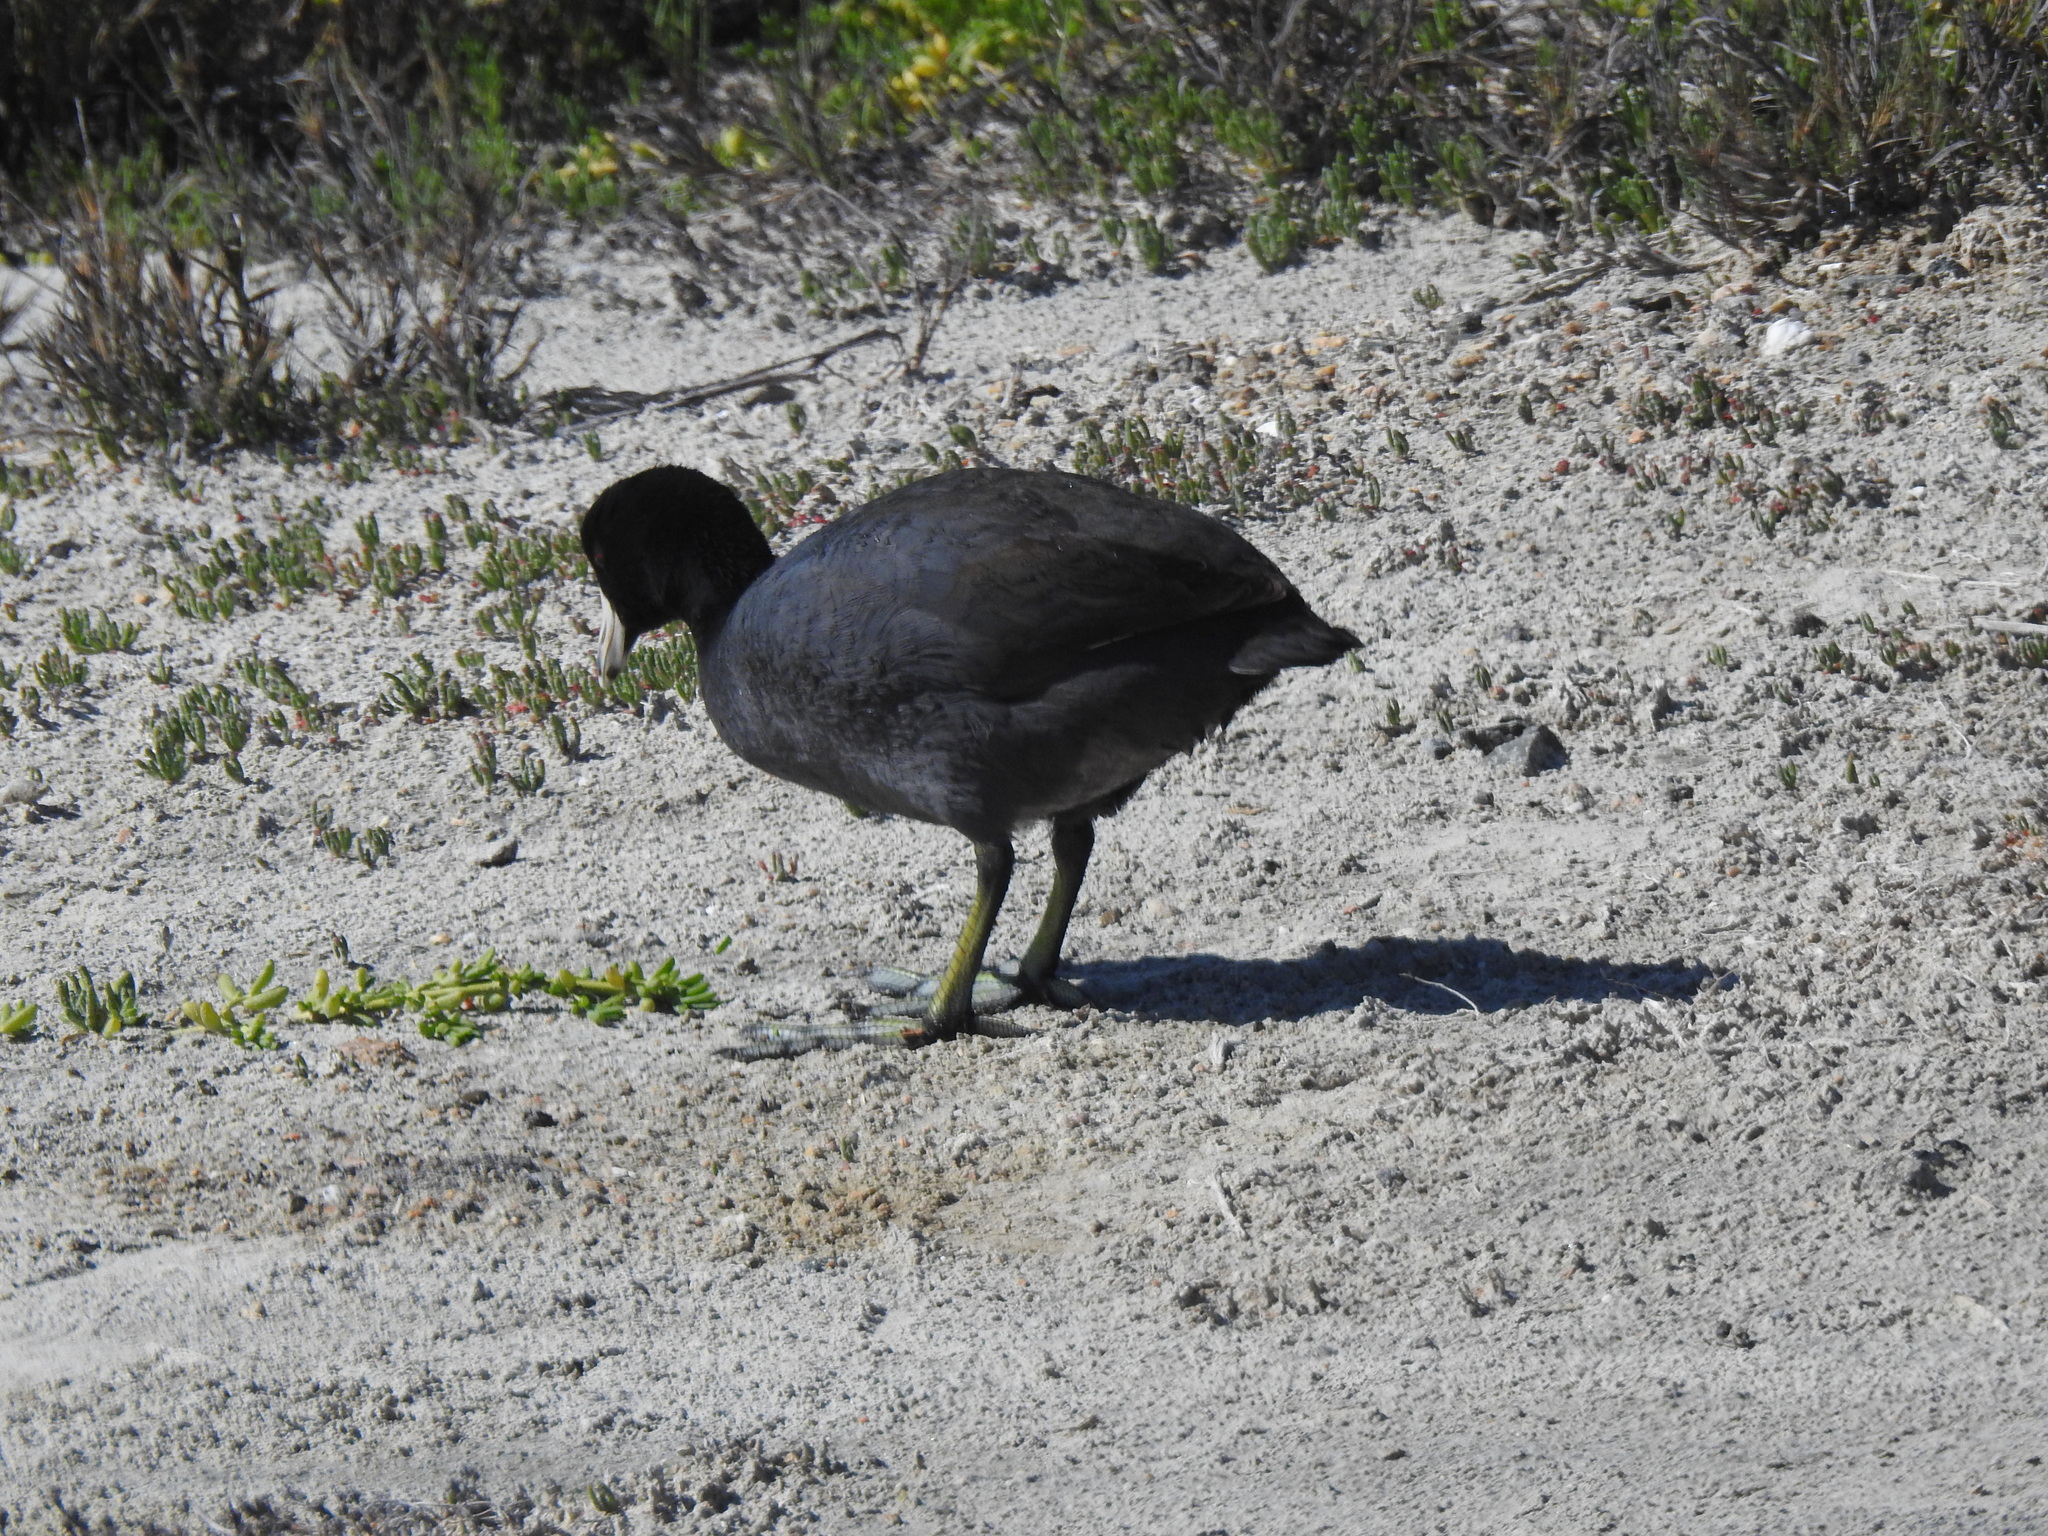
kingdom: Animalia
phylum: Chordata
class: Aves
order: Gruiformes
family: Rallidae
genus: Fulica
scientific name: Fulica americana
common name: American coot
